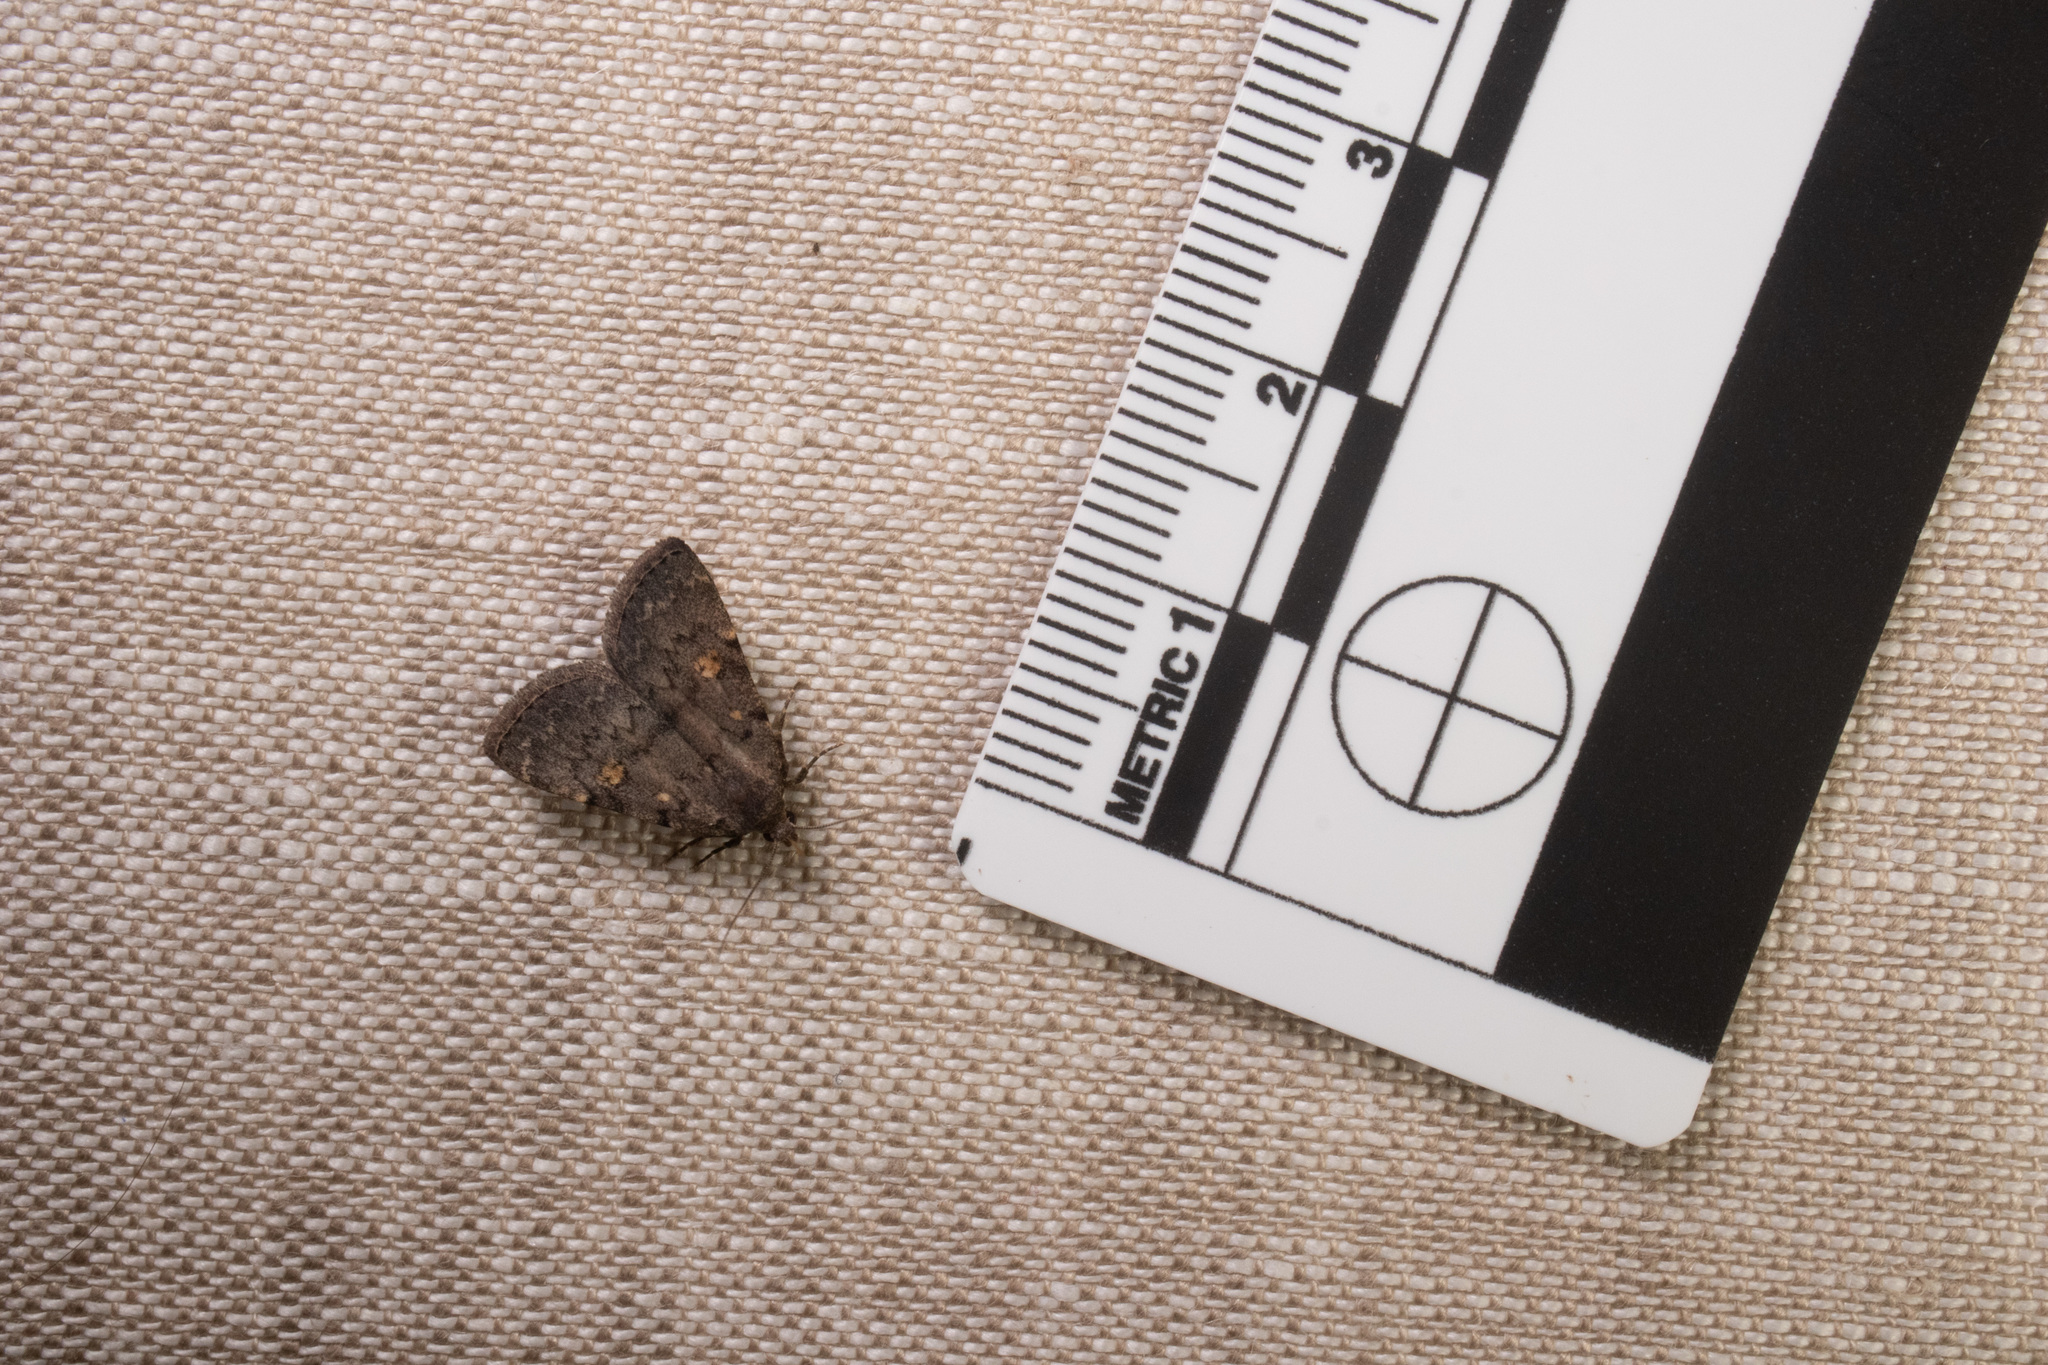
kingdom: Animalia
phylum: Arthropoda
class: Insecta
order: Lepidoptera
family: Erebidae
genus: Idia
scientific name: Idia aemula
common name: Common idia moth
